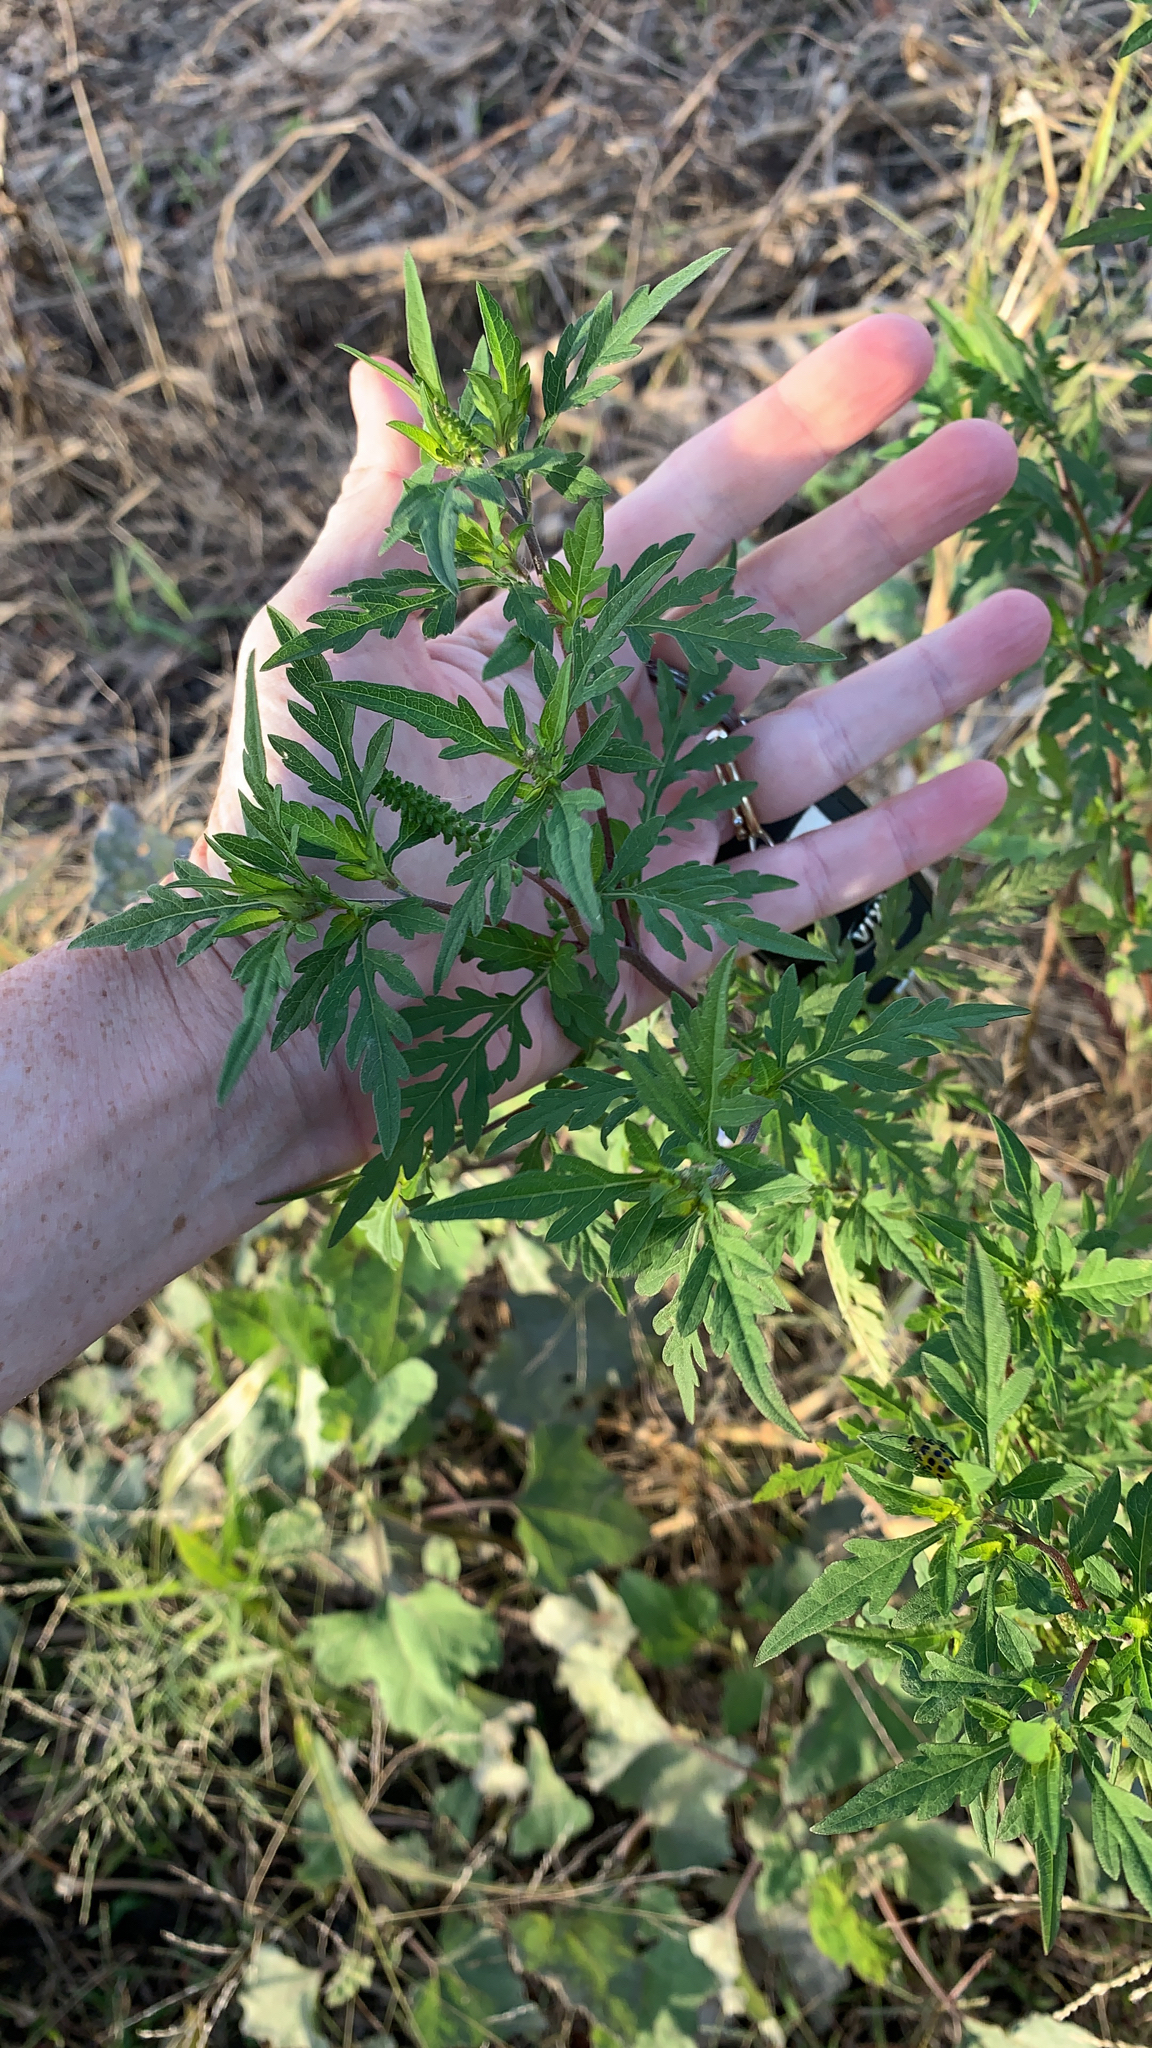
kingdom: Plantae
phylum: Tracheophyta
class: Magnoliopsida
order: Asterales
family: Asteraceae
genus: Ambrosia
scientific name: Ambrosia artemisiifolia
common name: Annual ragweed
